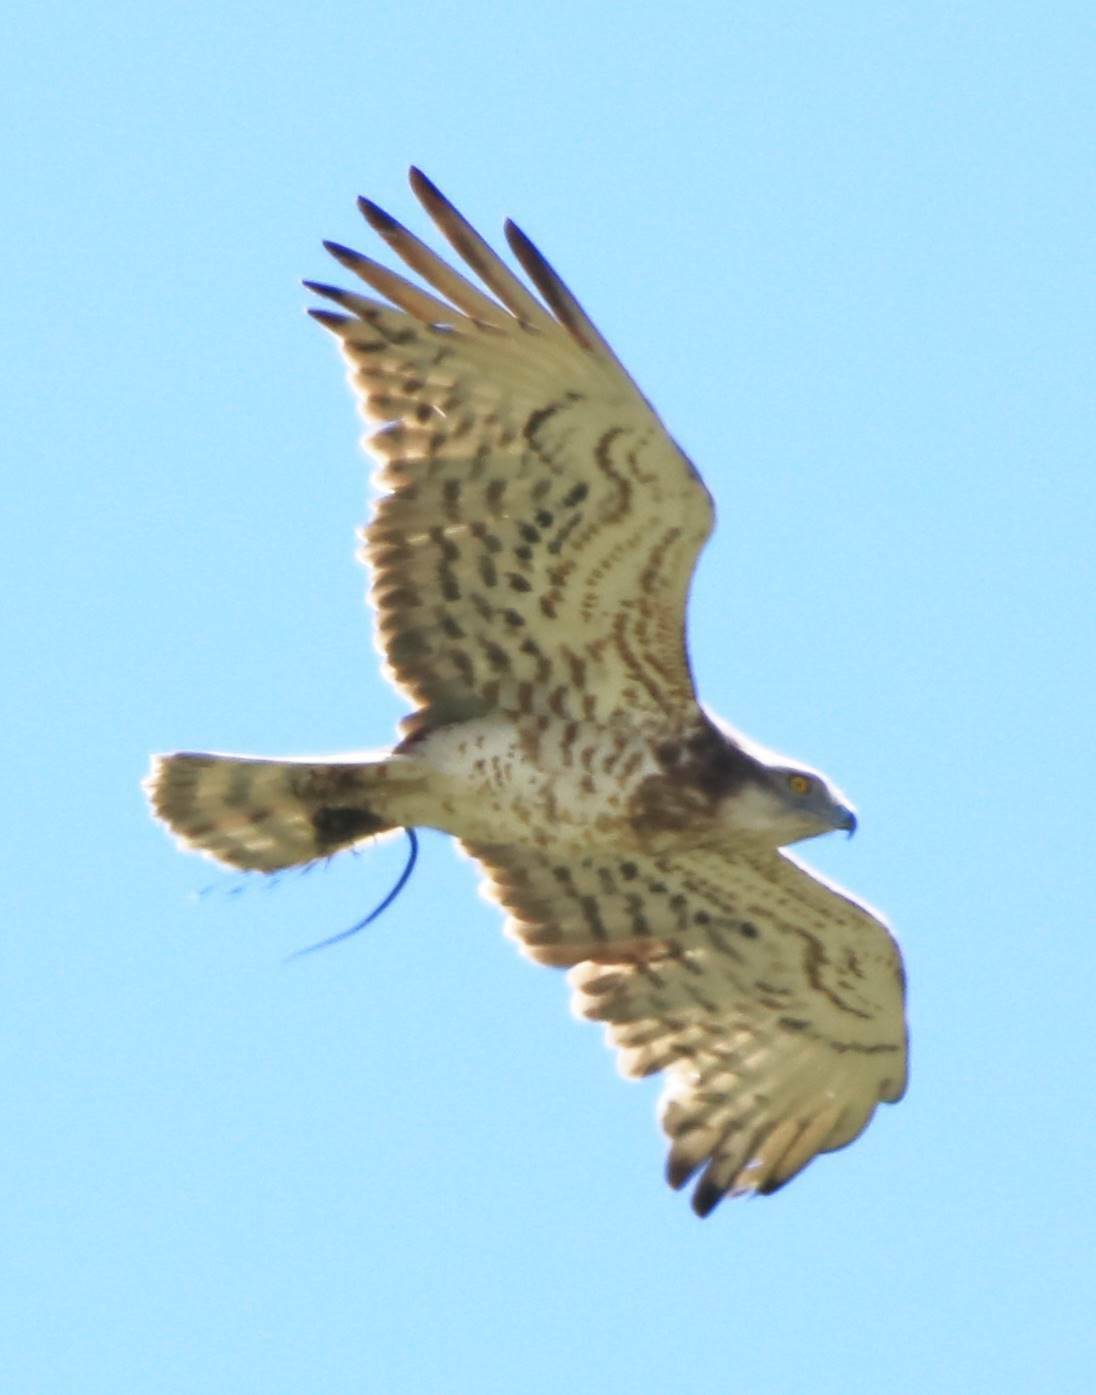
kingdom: Animalia
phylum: Chordata
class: Aves
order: Accipitriformes
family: Accipitridae
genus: Circaetus
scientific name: Circaetus gallicus
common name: Short-toed snake eagle
